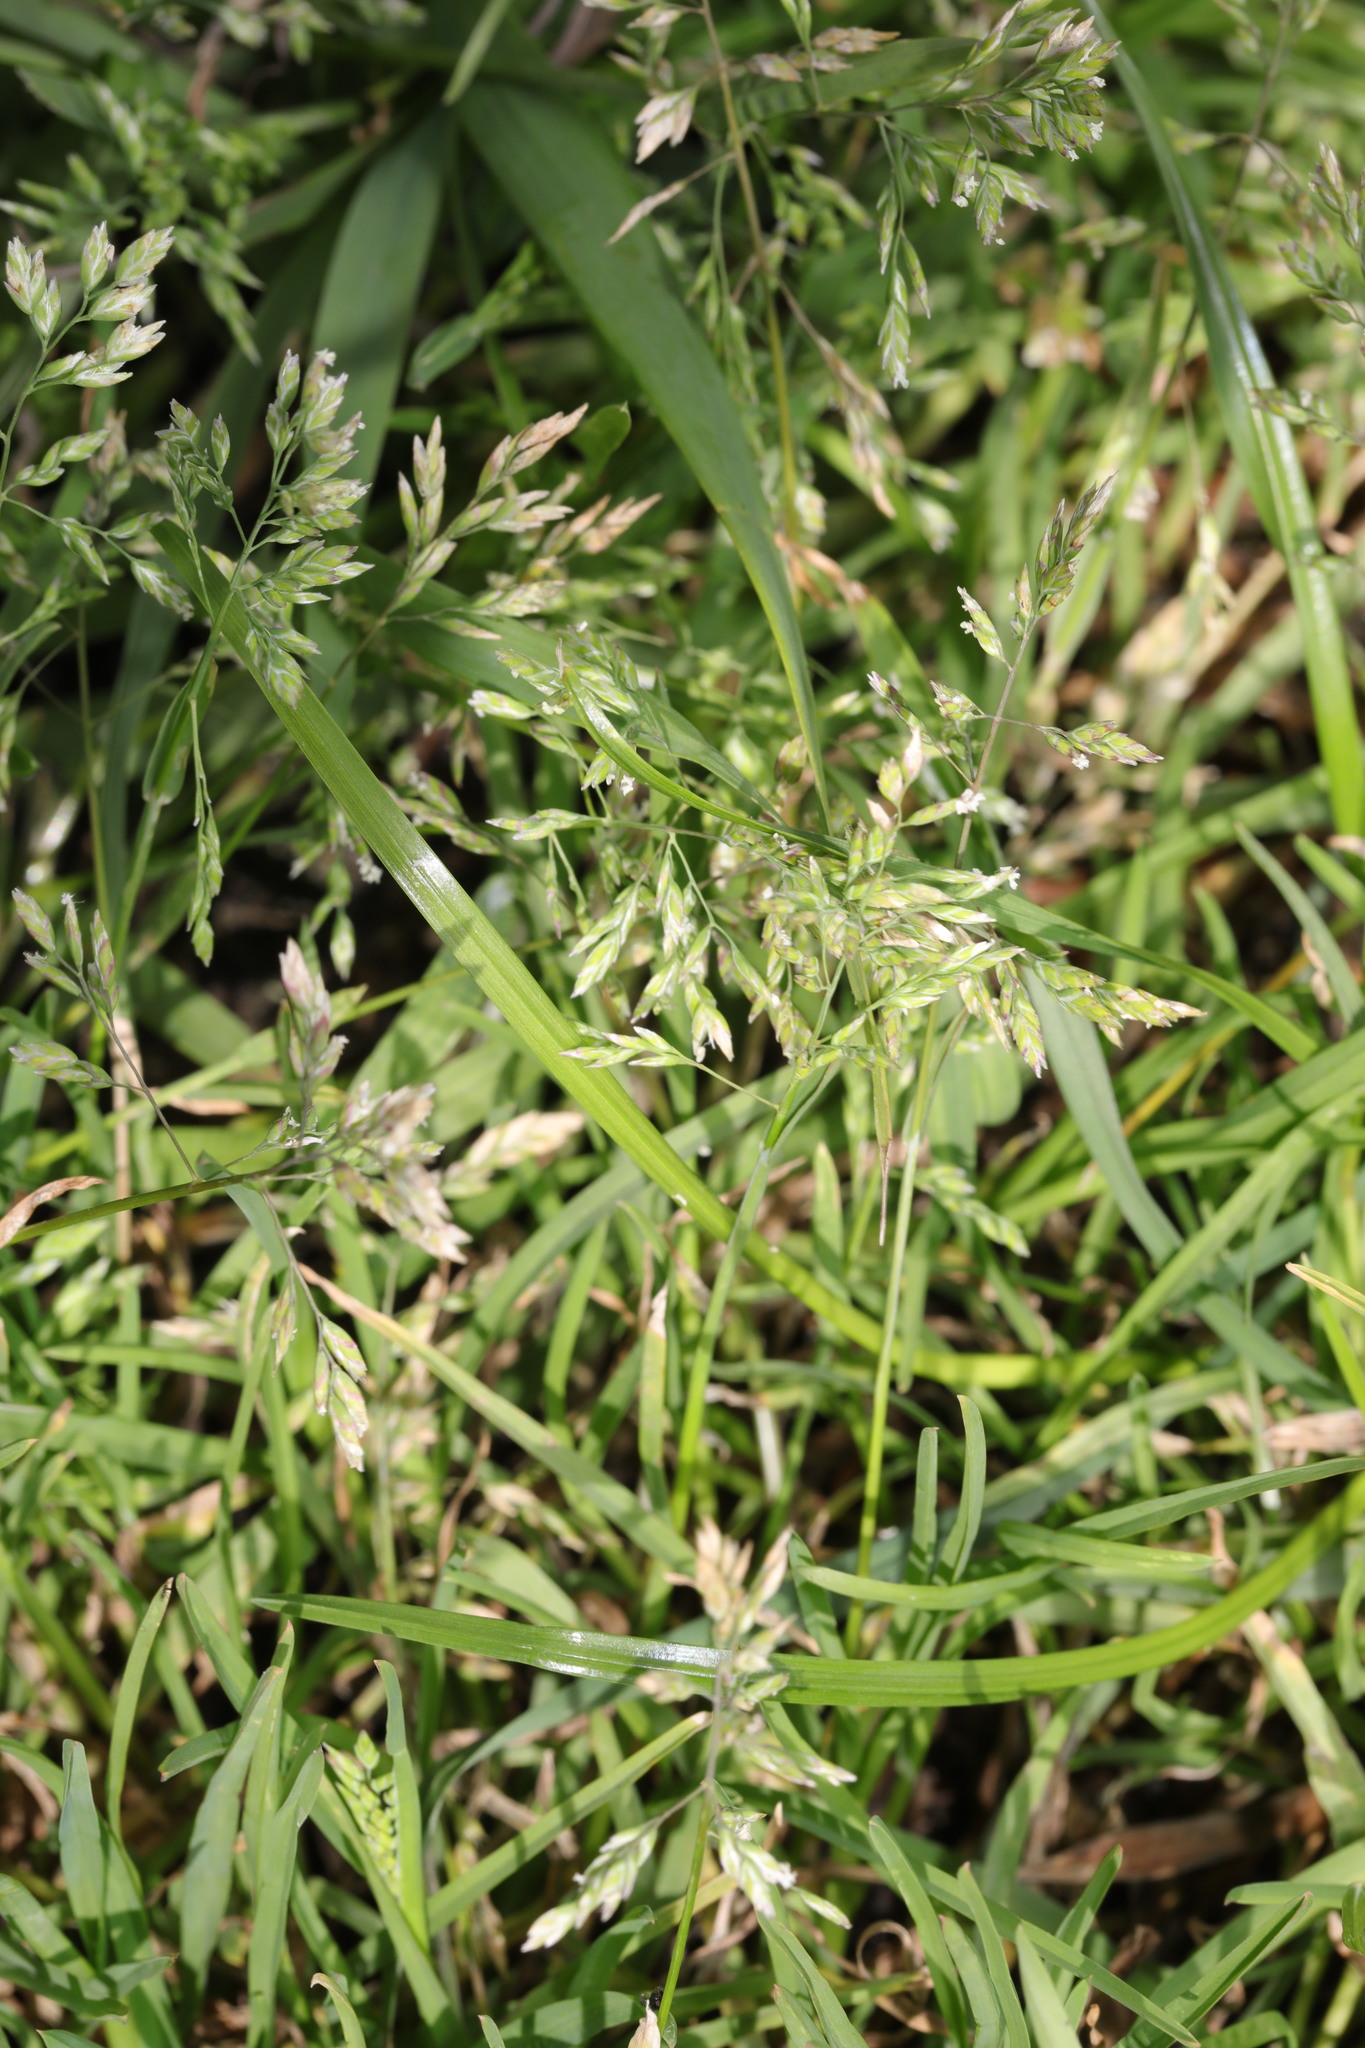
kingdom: Plantae
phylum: Tracheophyta
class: Liliopsida
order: Poales
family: Poaceae
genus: Poa
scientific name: Poa annua
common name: Annual bluegrass
